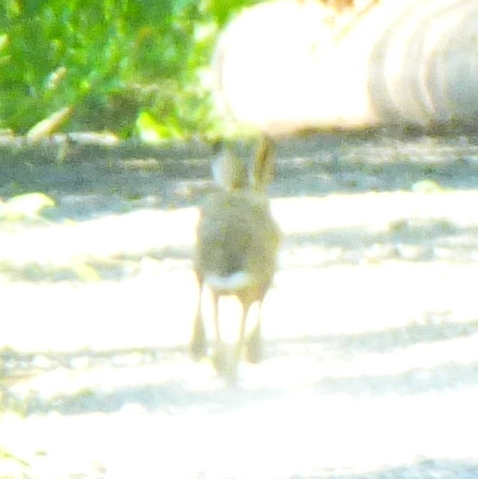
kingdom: Animalia
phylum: Chordata
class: Mammalia
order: Lagomorpha
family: Leporidae
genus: Lepus
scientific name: Lepus europaeus
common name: European hare
